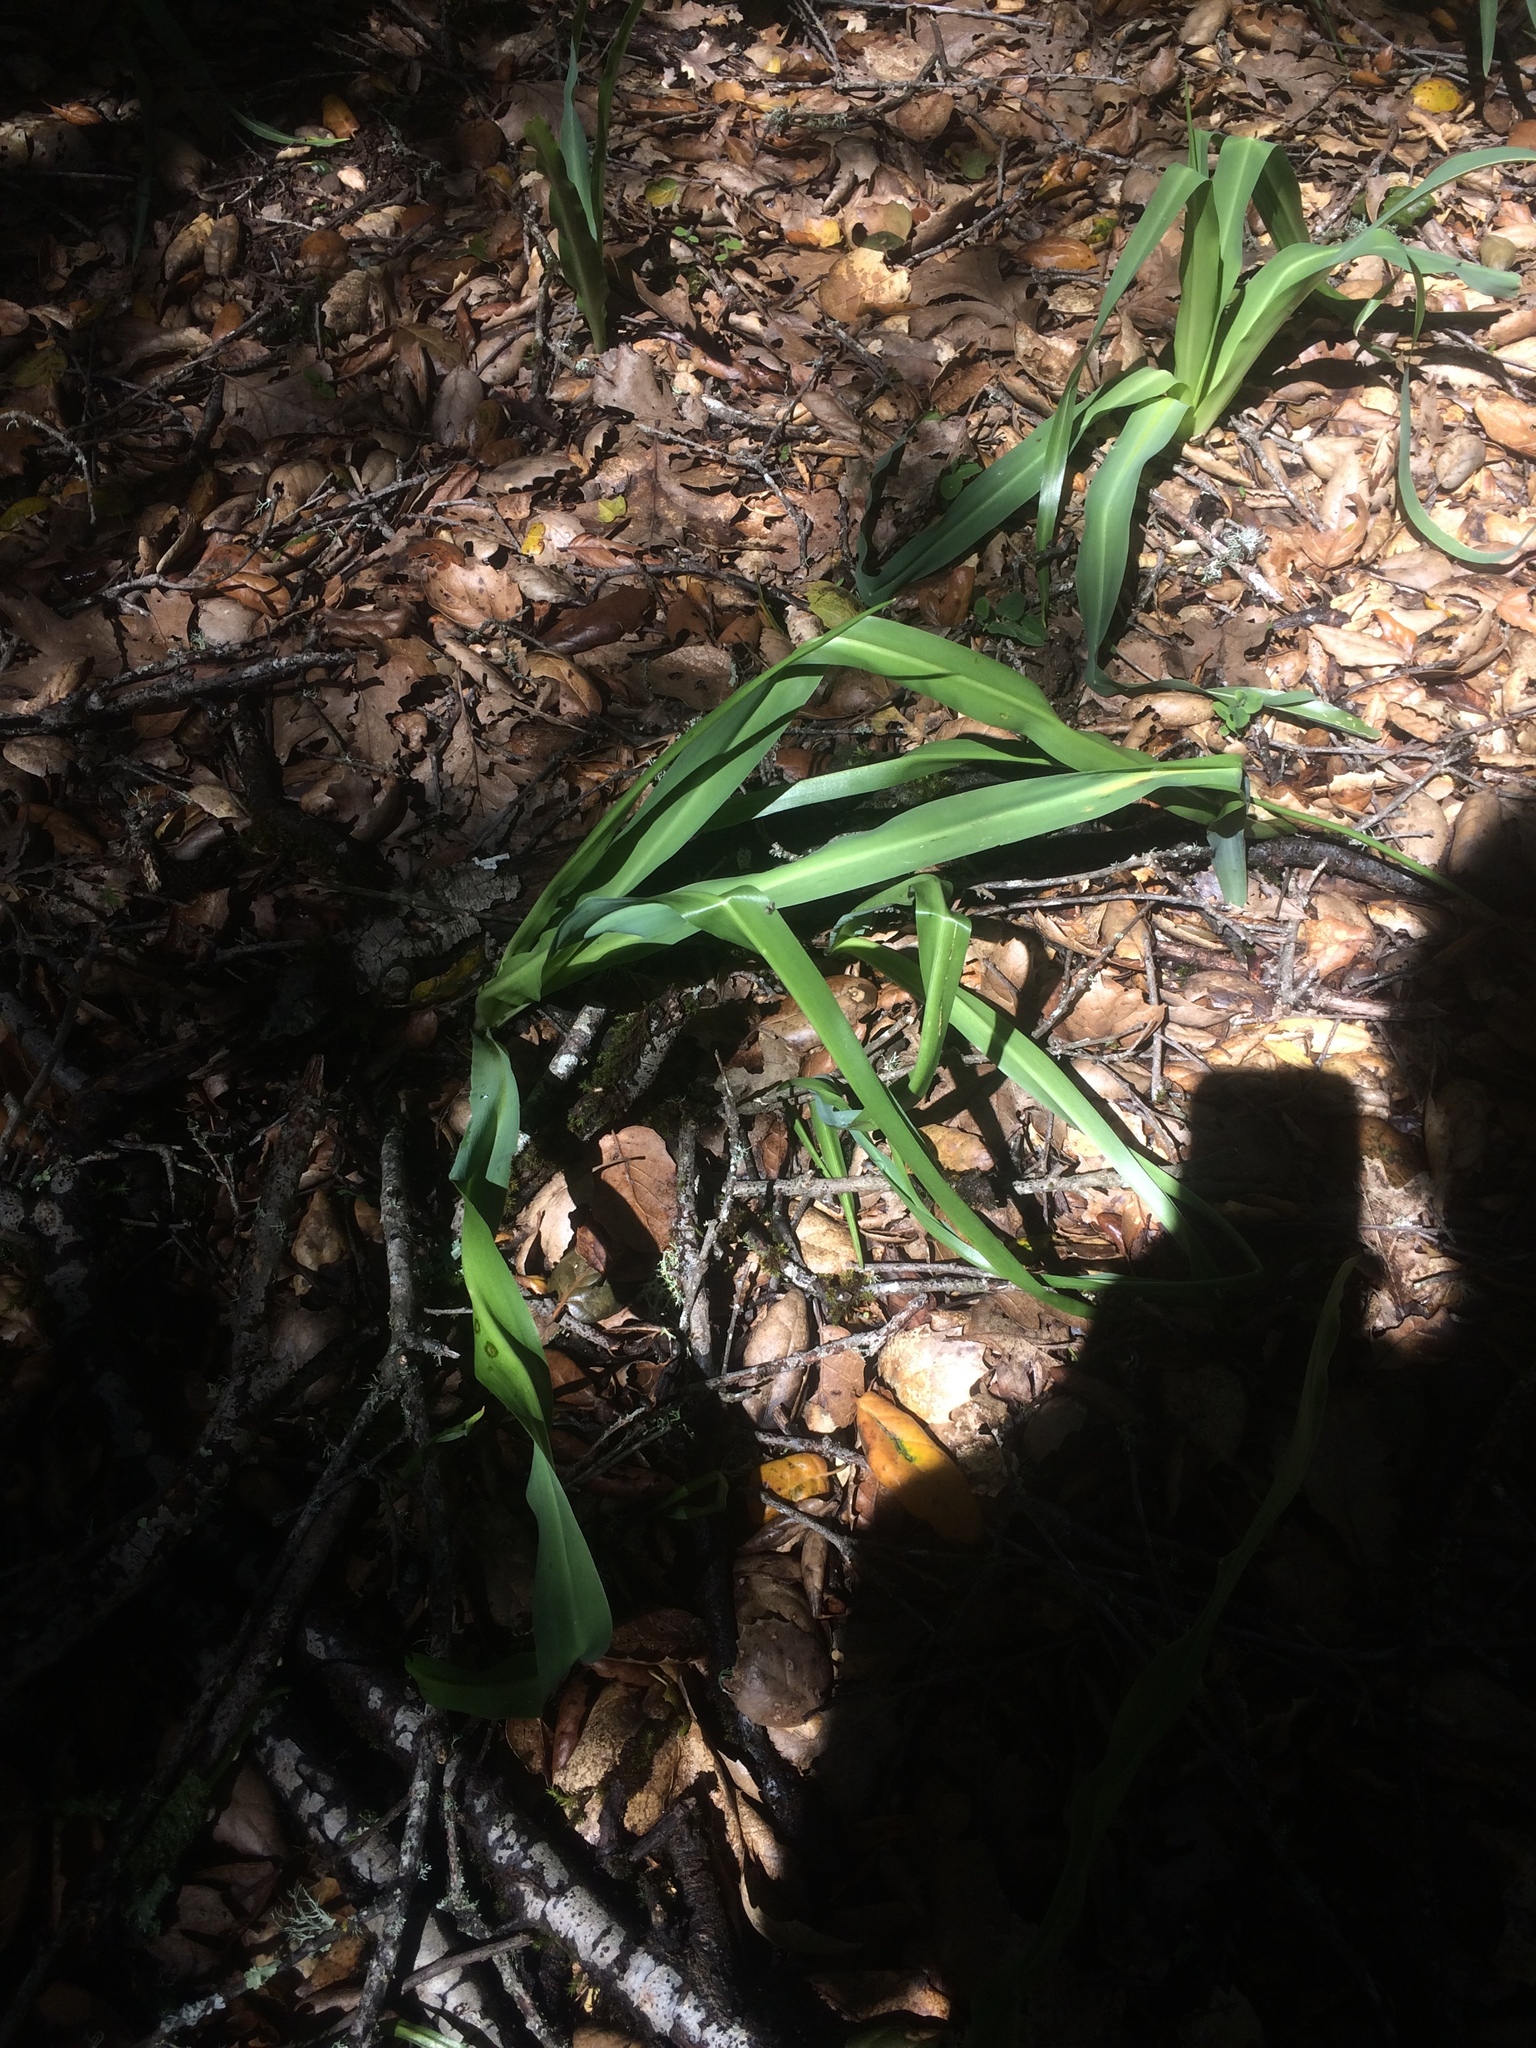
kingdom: Plantae
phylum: Tracheophyta
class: Liliopsida
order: Asparagales
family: Asparagaceae
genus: Chlorogalum
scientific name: Chlorogalum pomeridianum
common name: Amole
